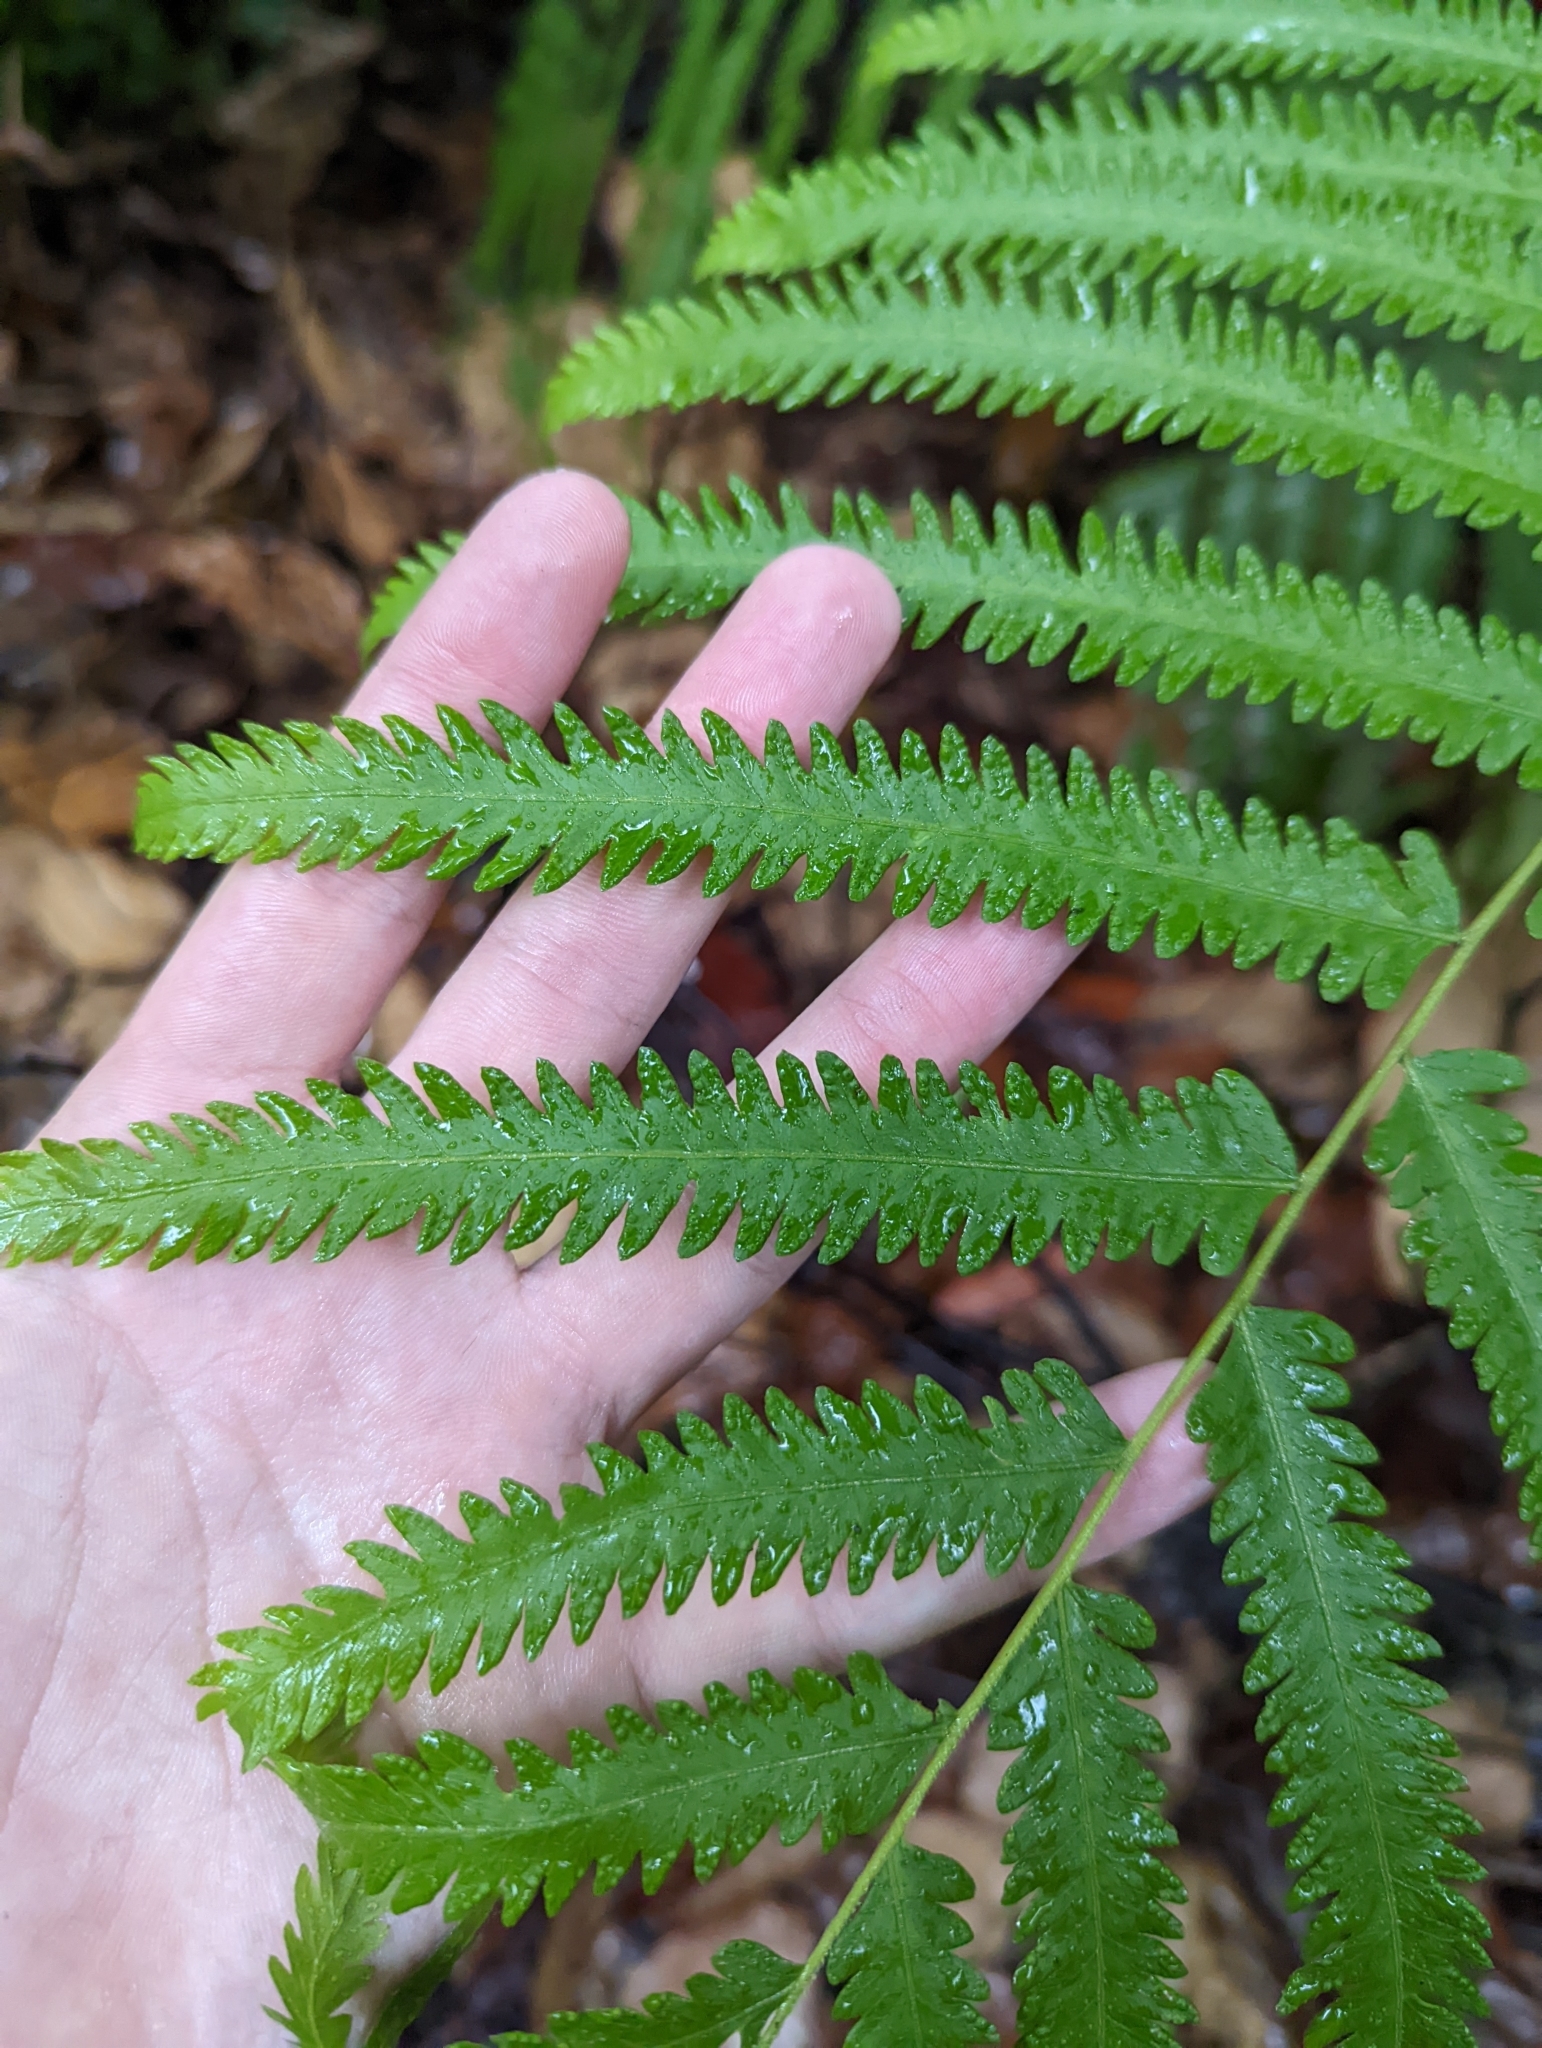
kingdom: Plantae
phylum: Tracheophyta
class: Polypodiopsida
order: Polypodiales
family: Thelypteridaceae
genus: Amblovenatum
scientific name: Amblovenatum opulentum
